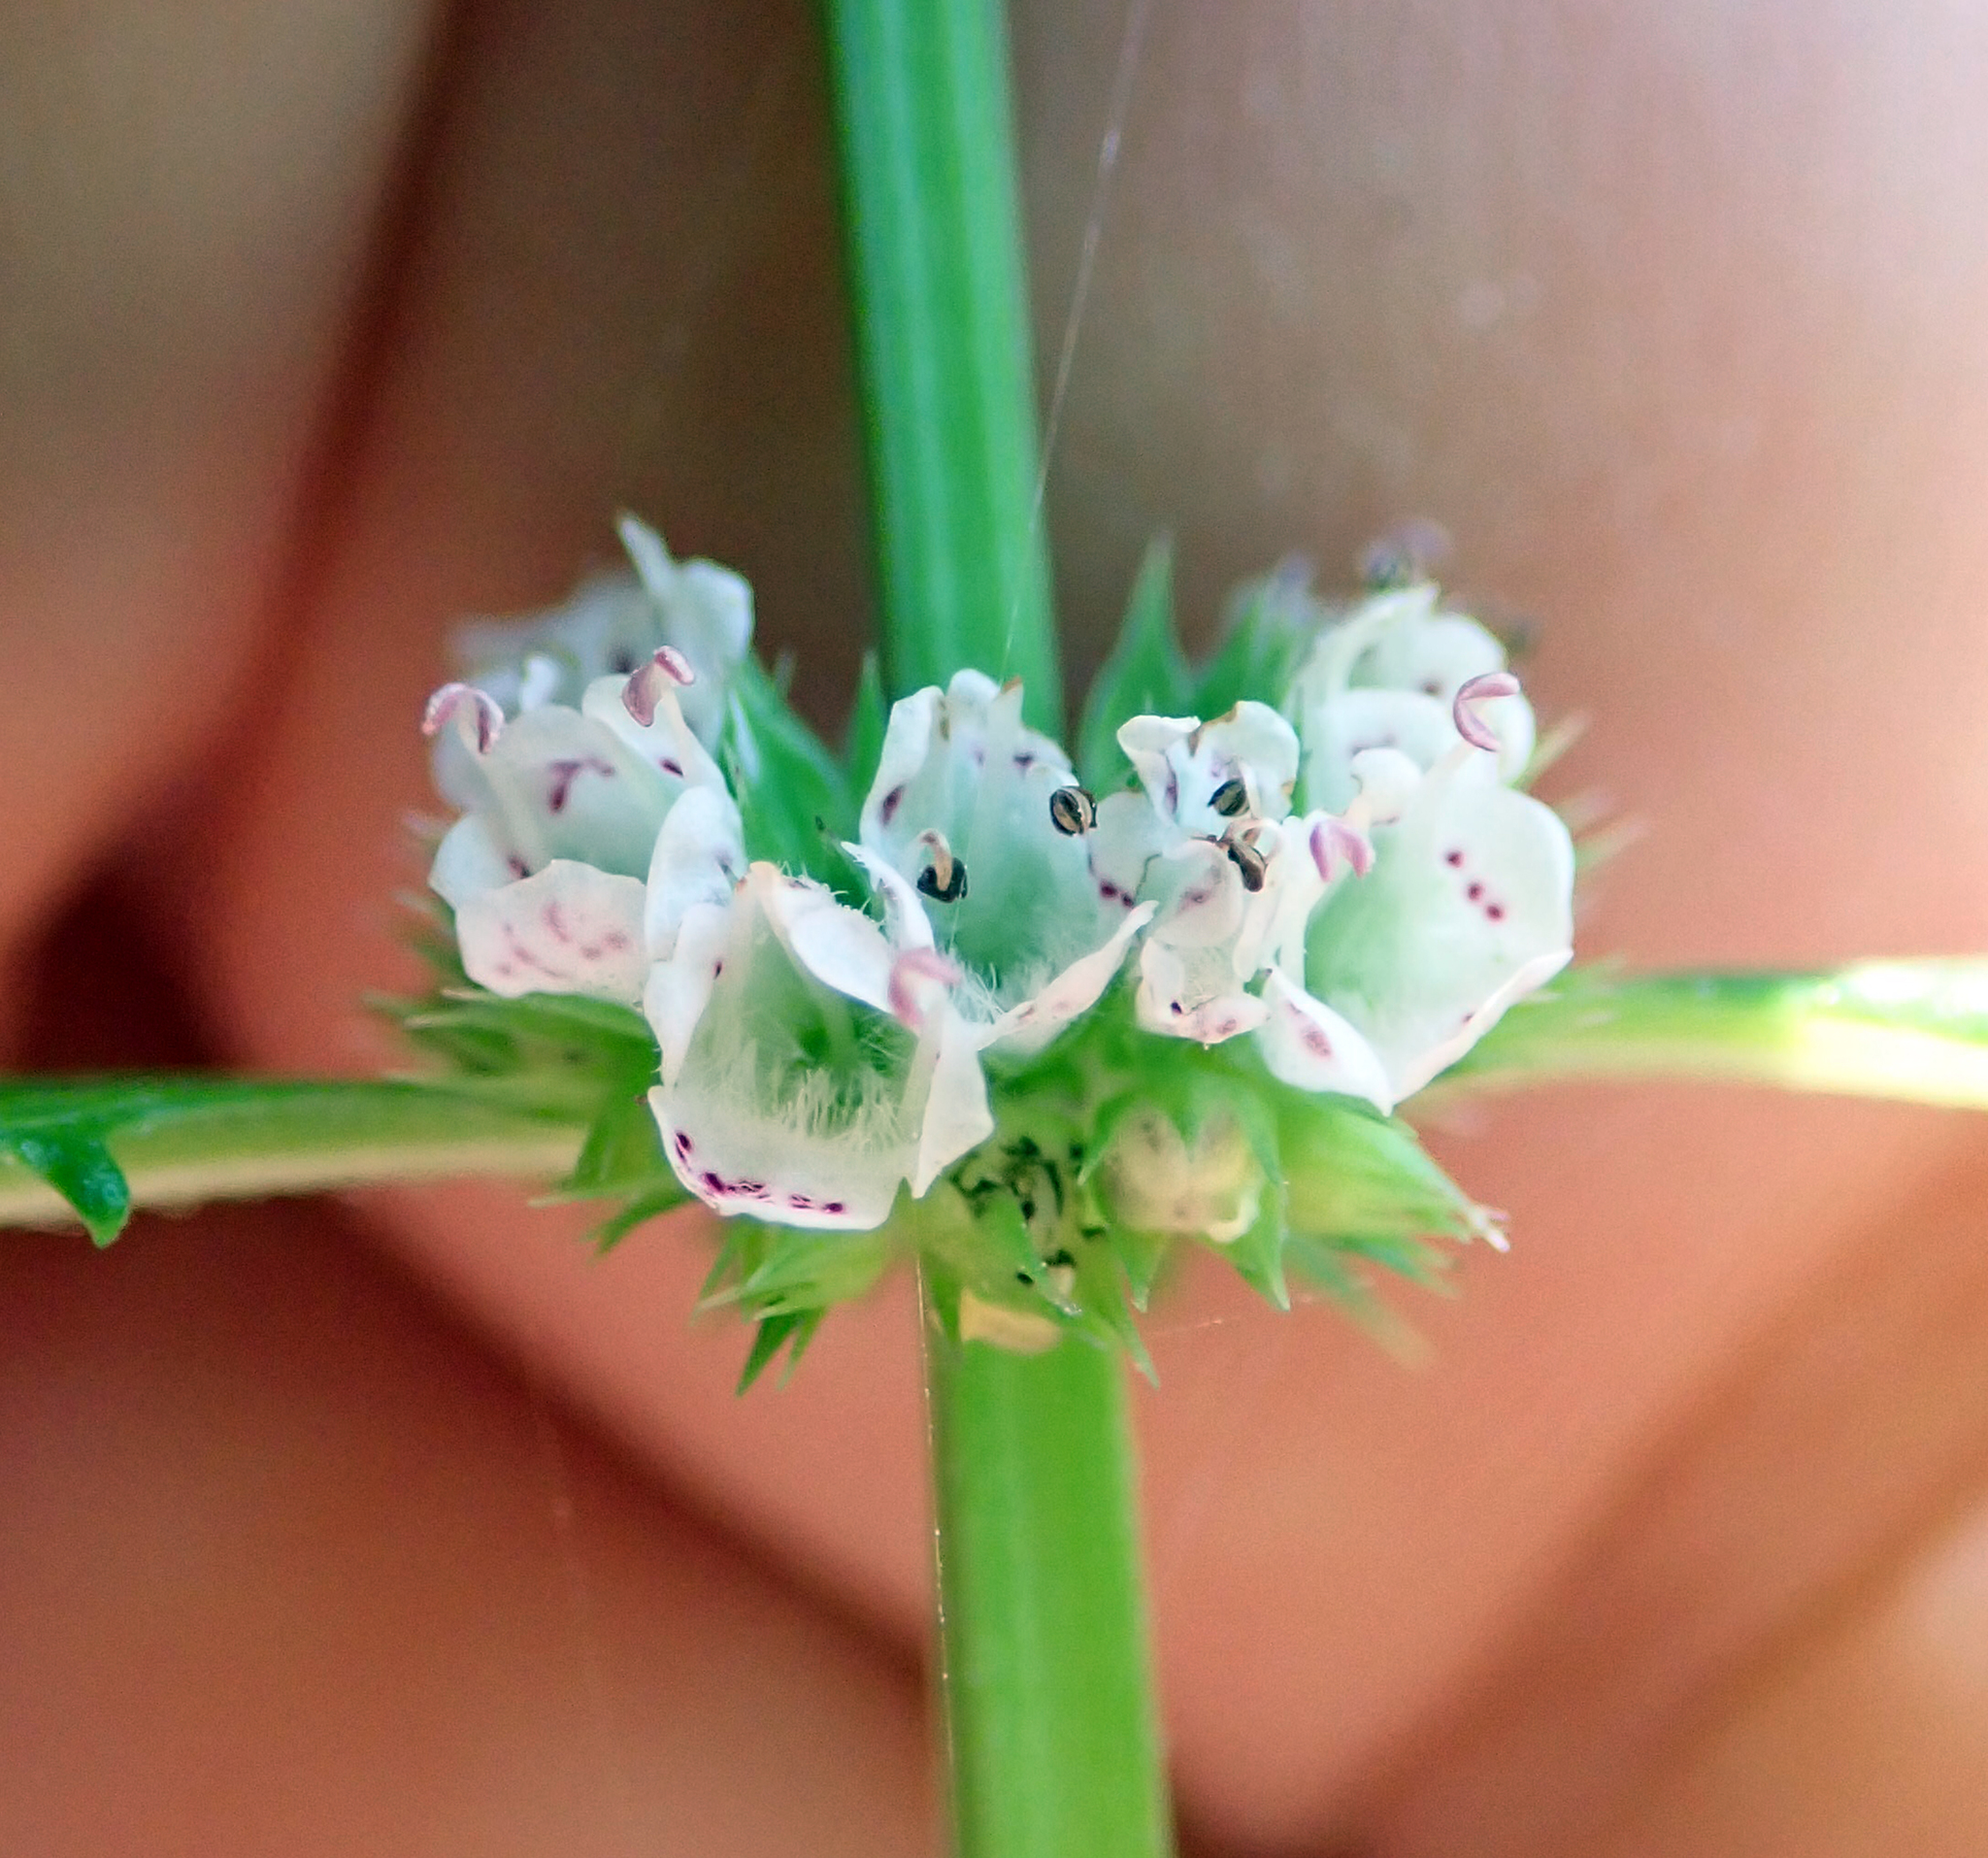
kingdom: Plantae
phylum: Tracheophyta
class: Magnoliopsida
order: Lamiales
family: Lamiaceae
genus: Lycopus
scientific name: Lycopus europaeus
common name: European bugleweed
